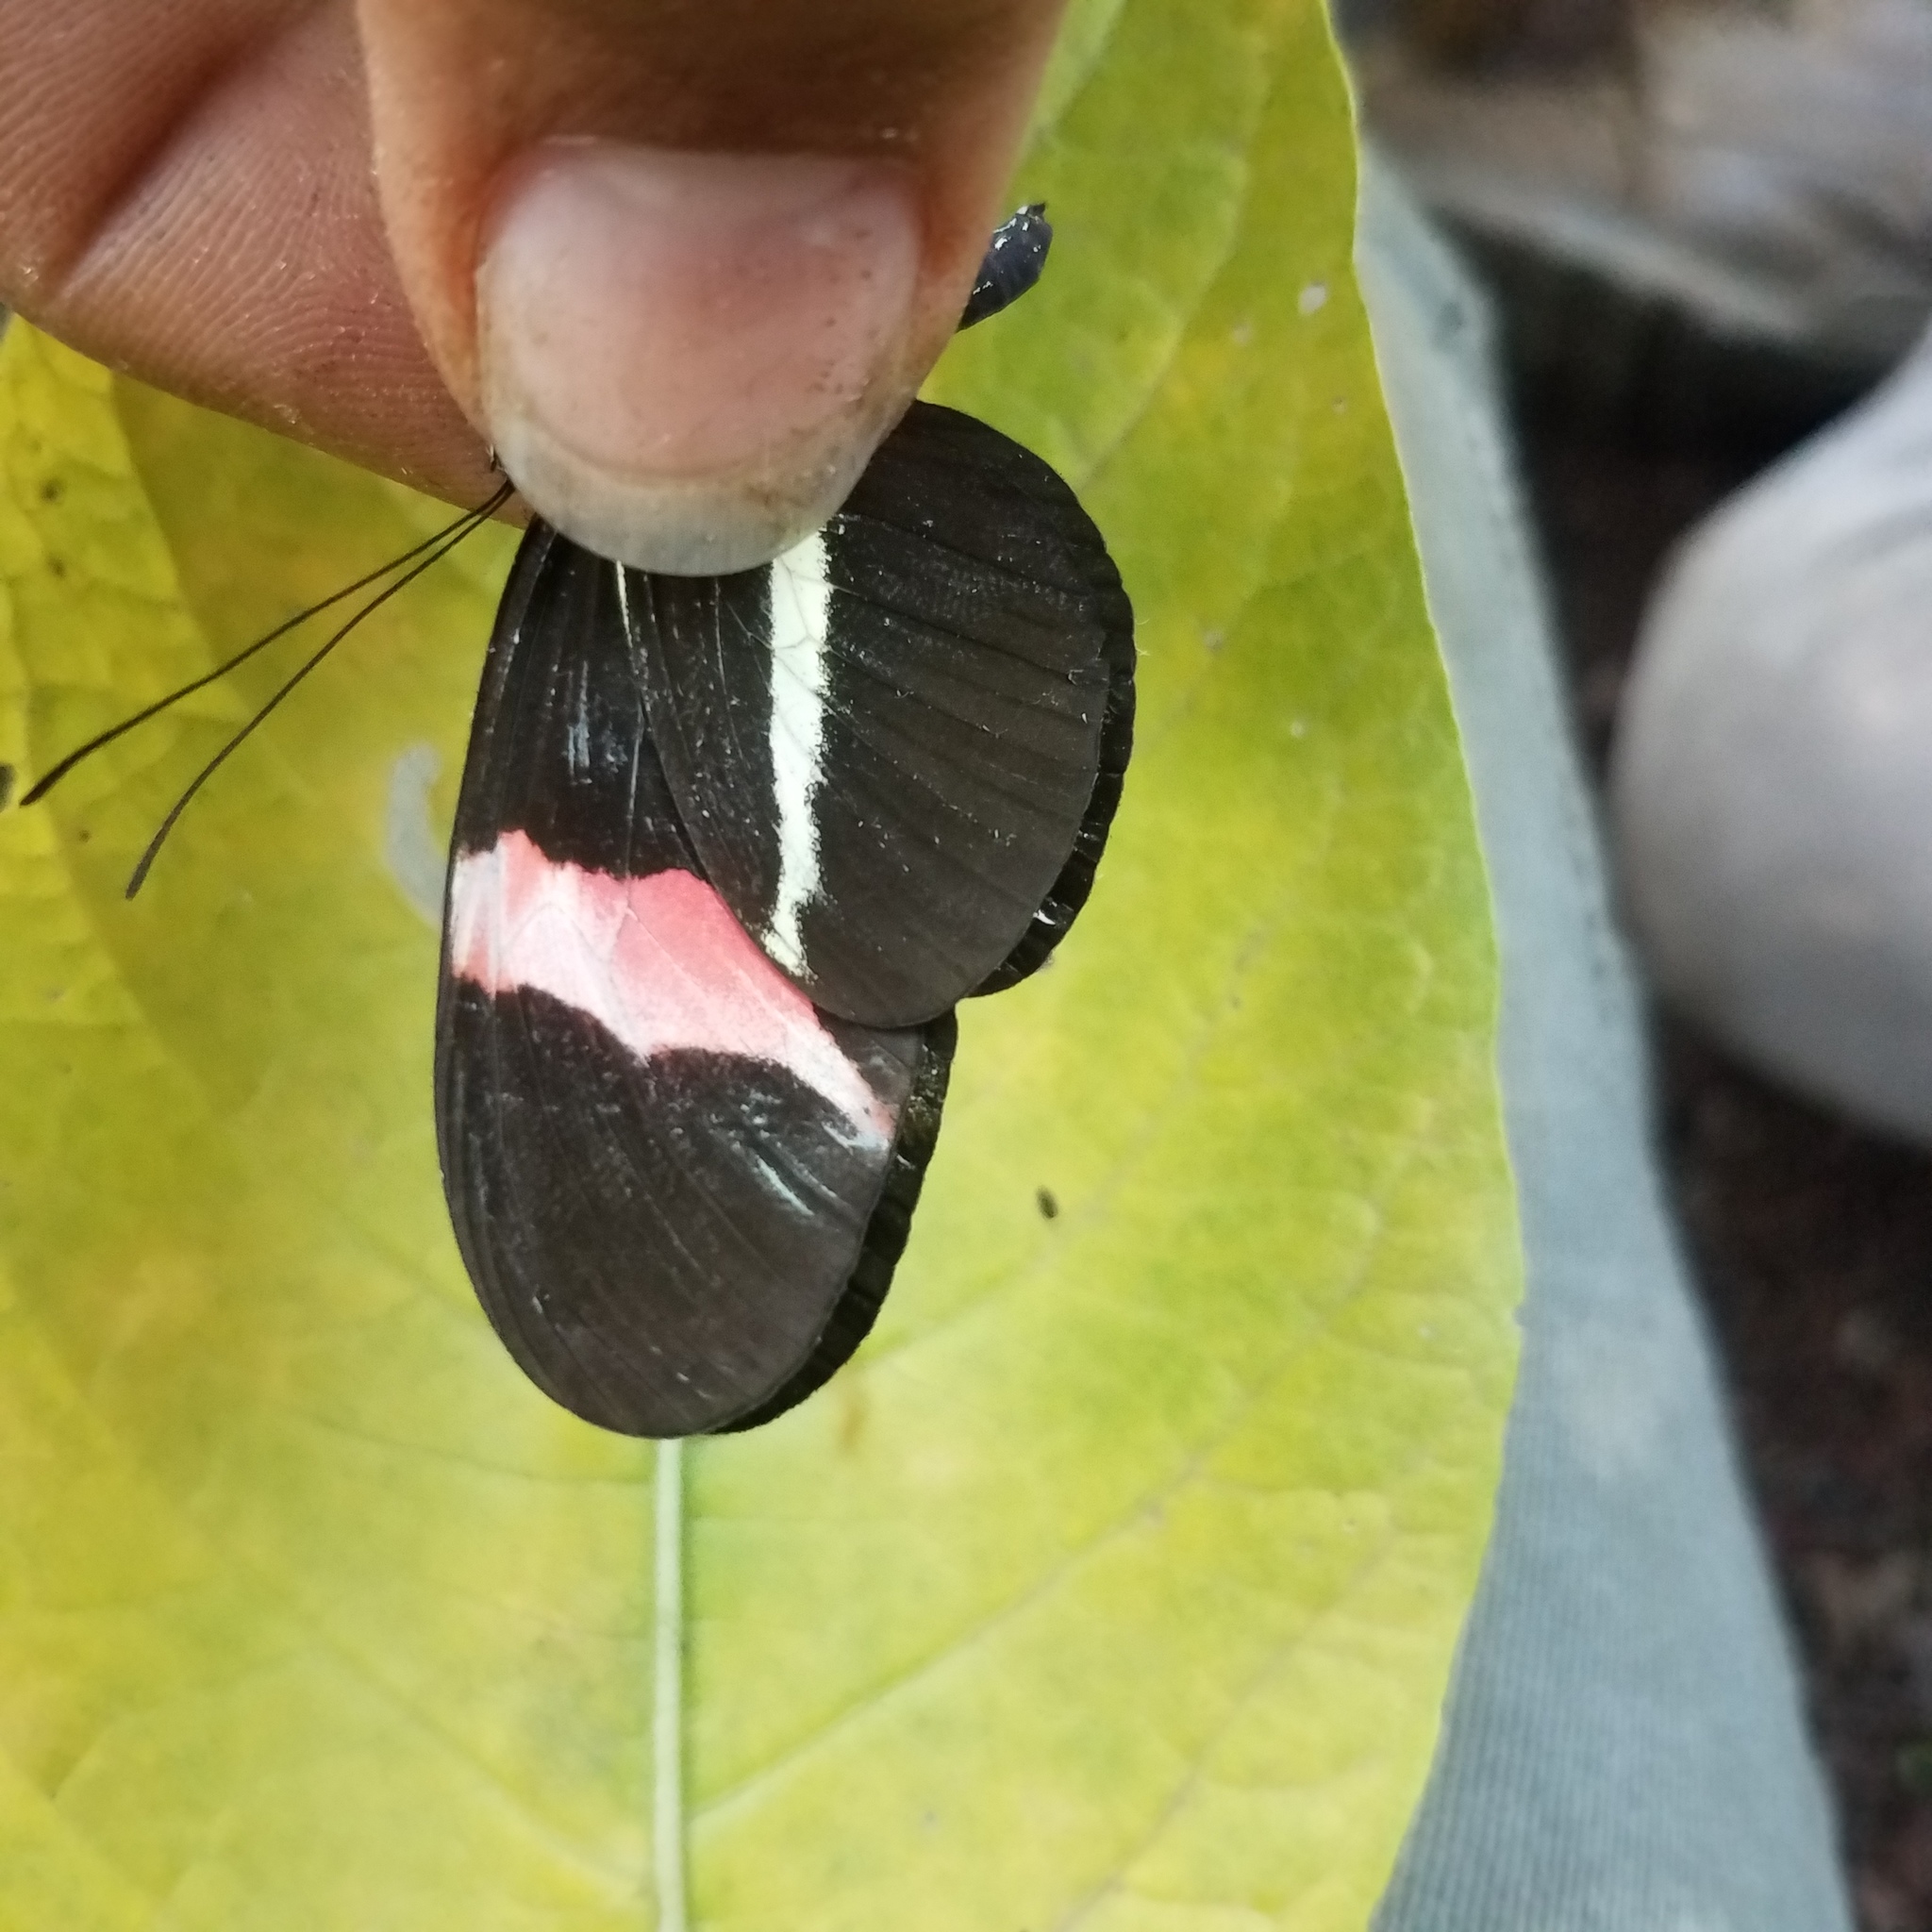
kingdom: Animalia
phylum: Arthropoda
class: Insecta
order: Lepidoptera
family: Nymphalidae
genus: Tirumala
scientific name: Tirumala petiverana
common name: Blue monarch
